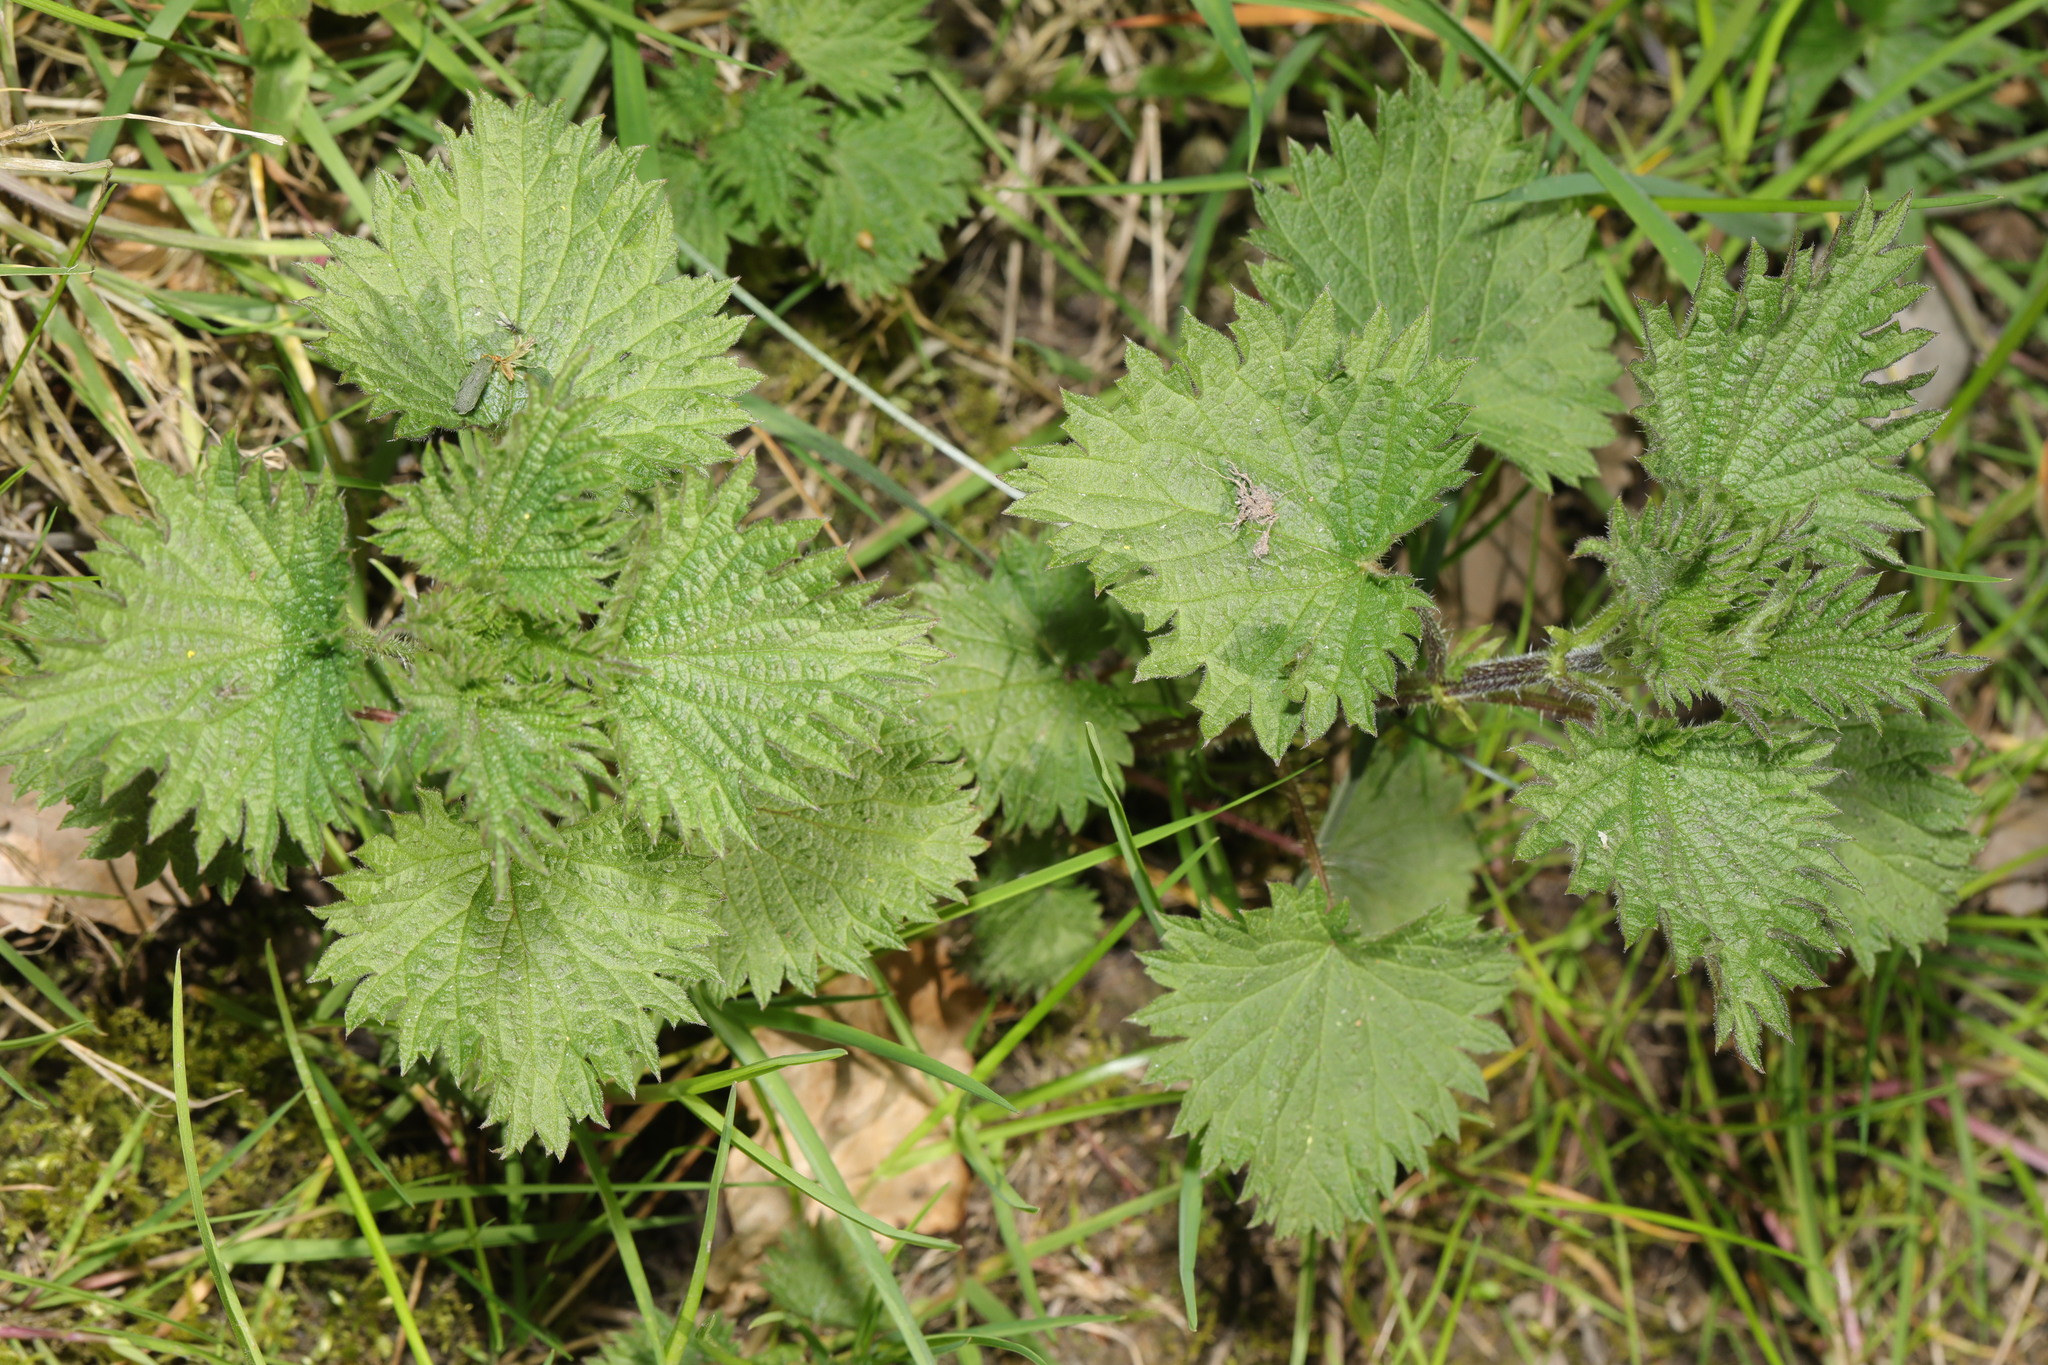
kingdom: Plantae
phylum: Tracheophyta
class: Magnoliopsida
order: Rosales
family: Urticaceae
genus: Urtica
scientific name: Urtica dioica
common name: Common nettle
